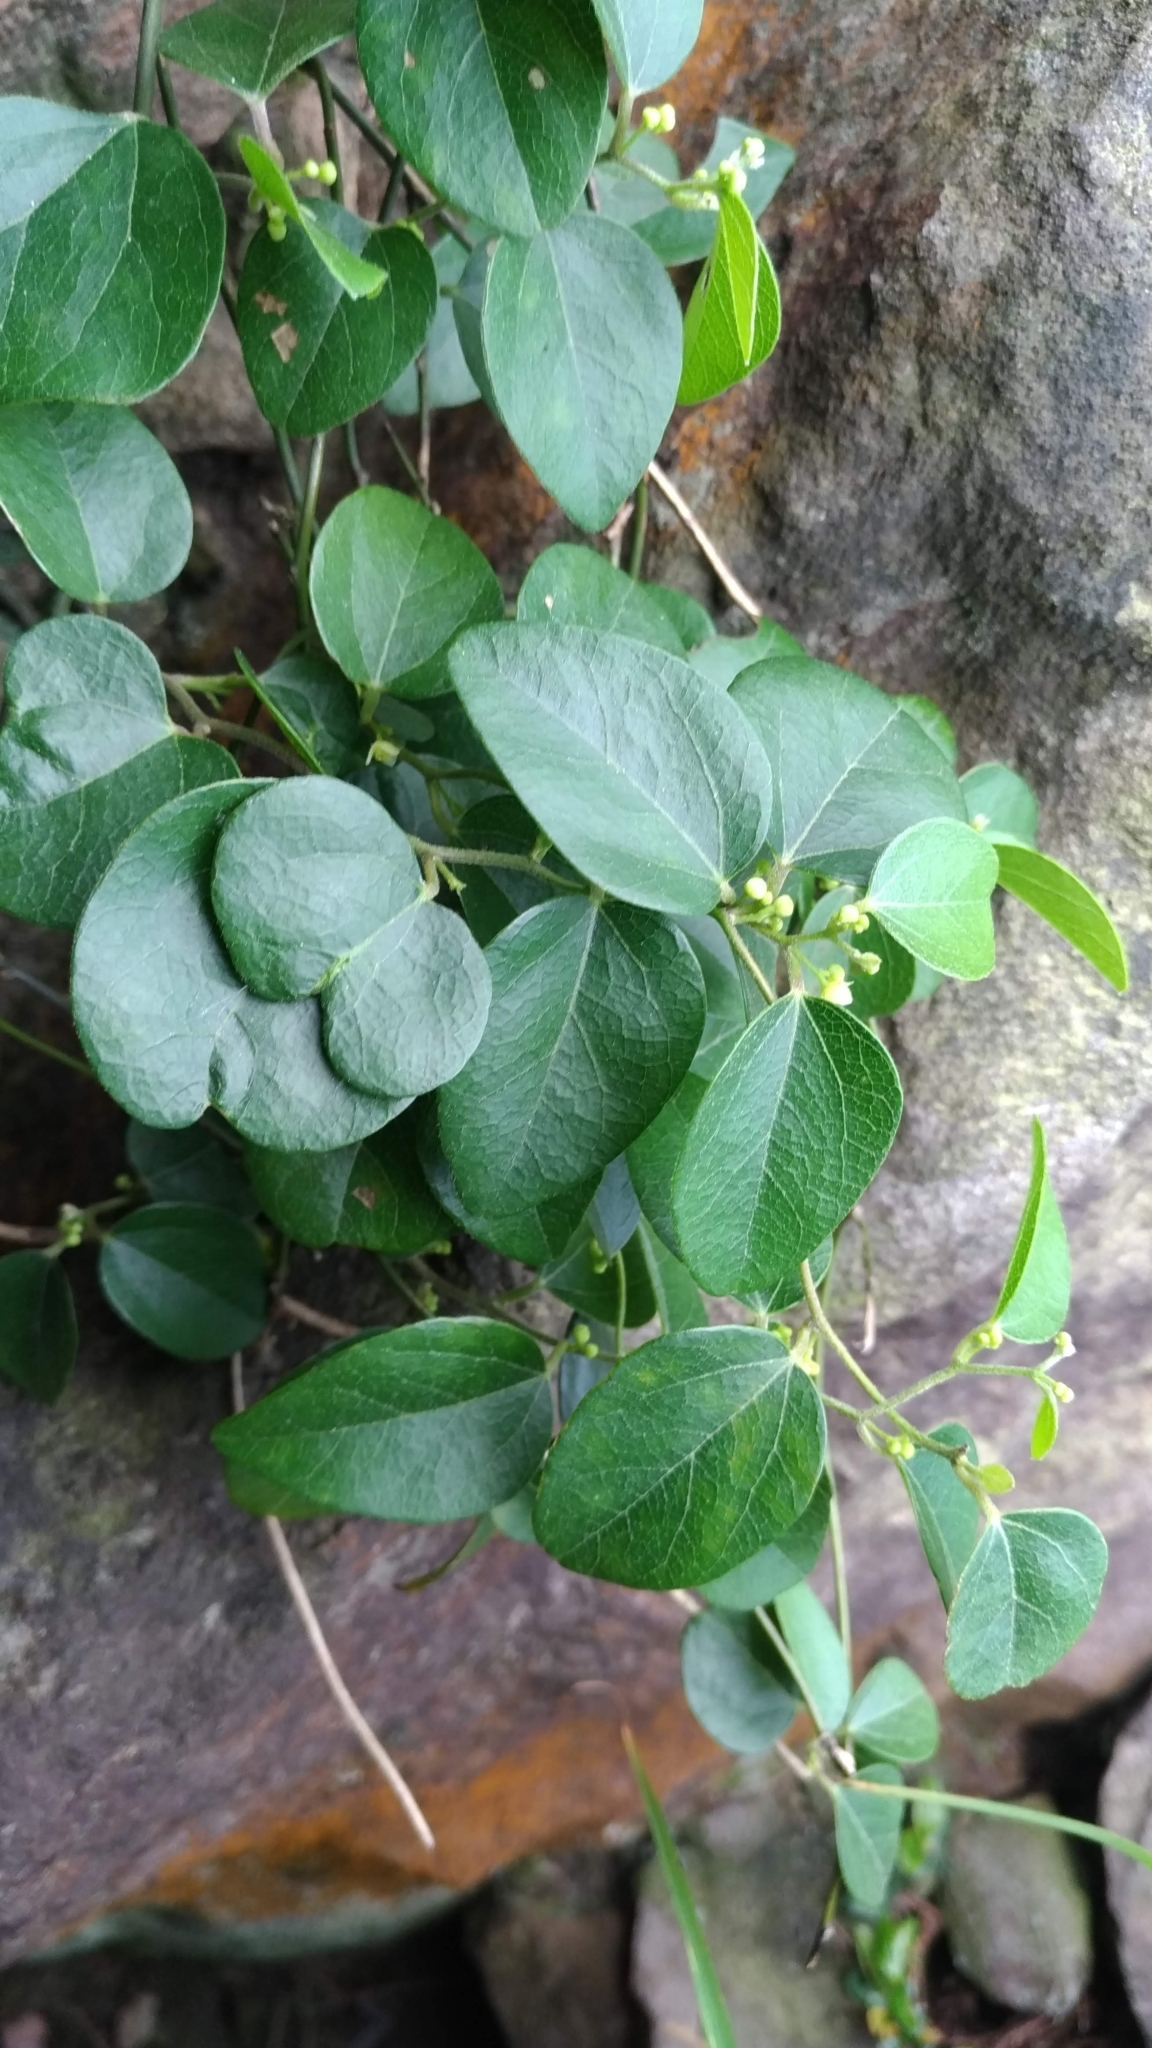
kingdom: Plantae
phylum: Tracheophyta
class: Magnoliopsida
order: Ranunculales
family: Menispermaceae
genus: Cocculus
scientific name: Cocculus orbiculatus
